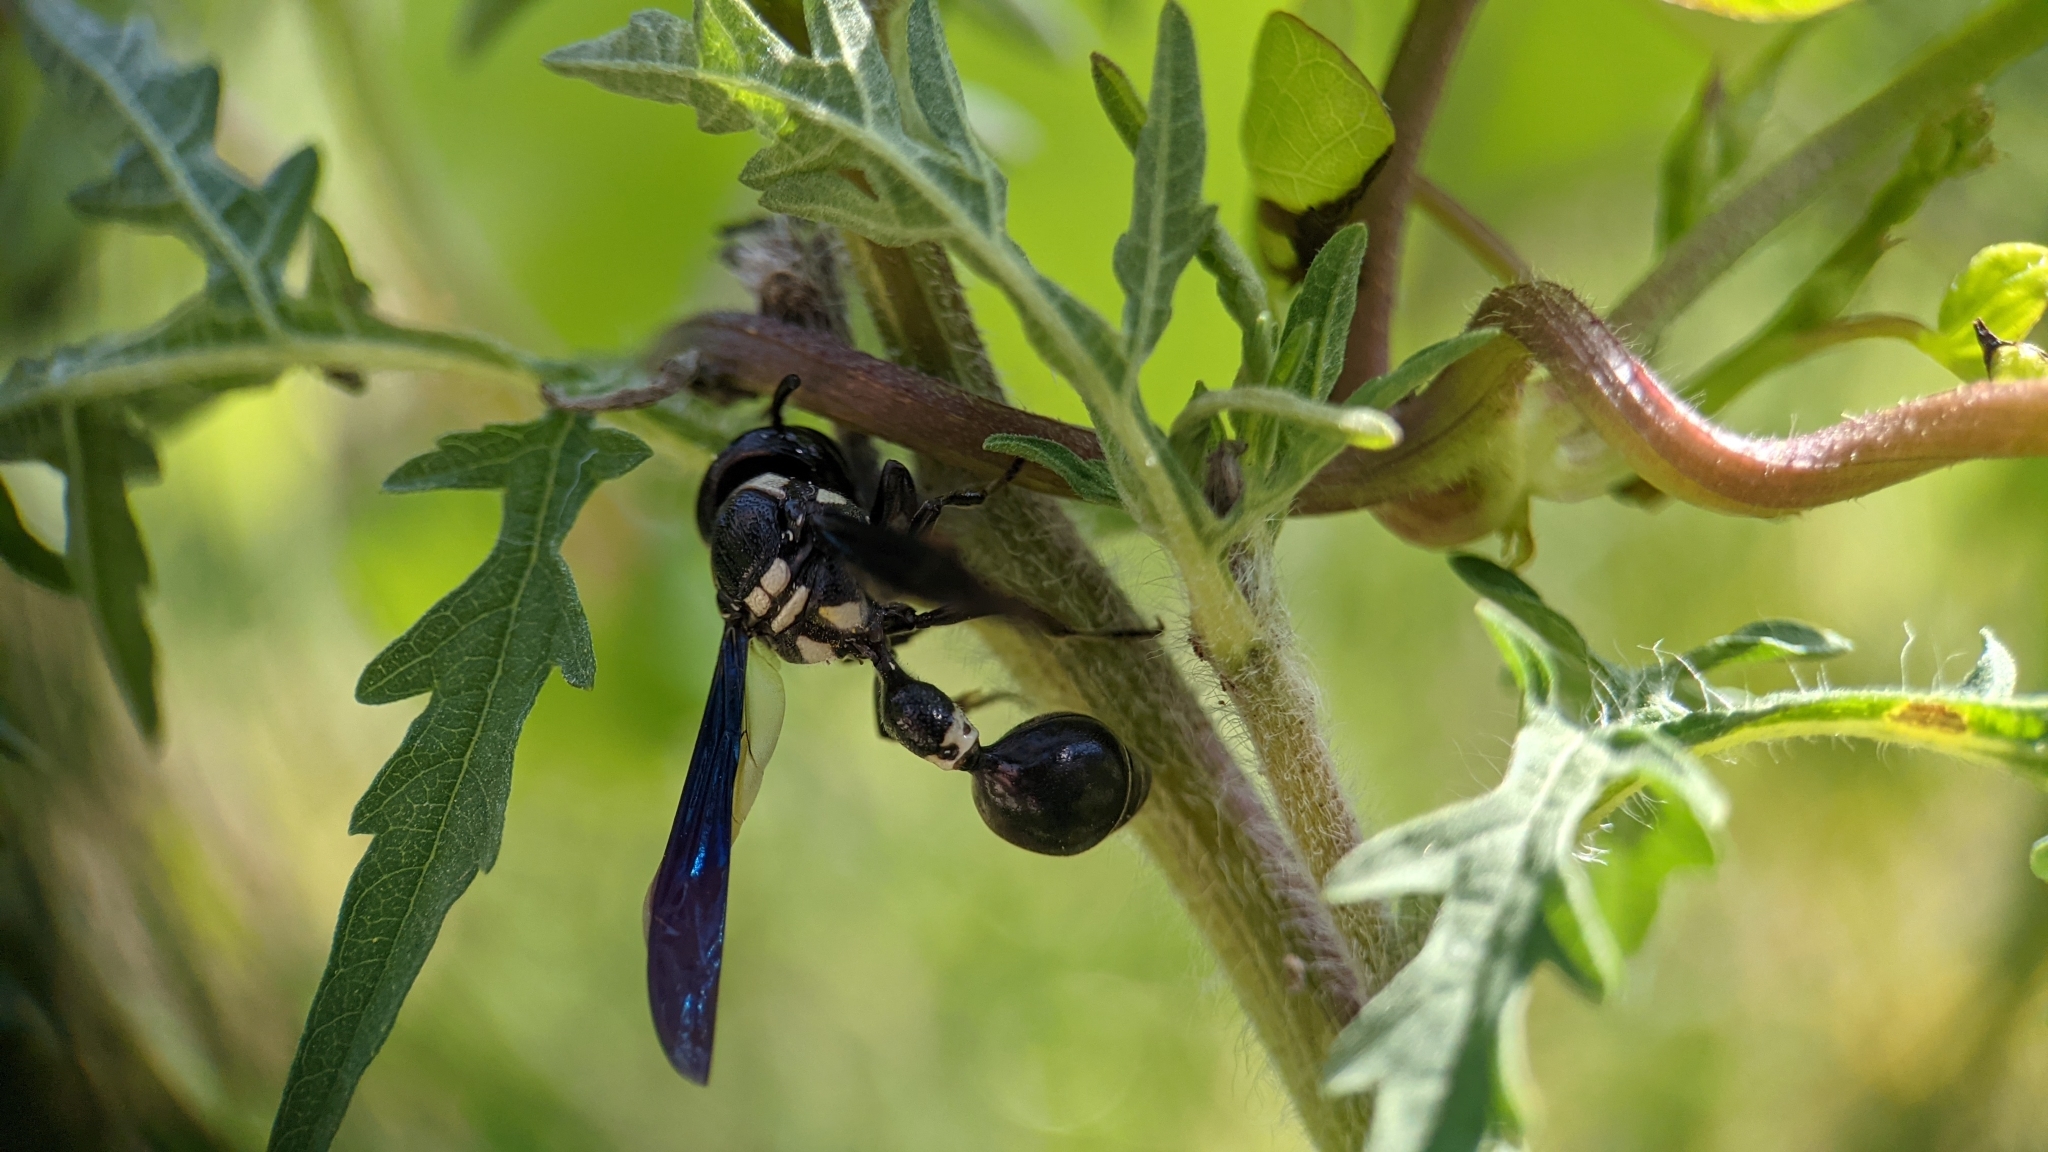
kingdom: Animalia
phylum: Arthropoda
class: Insecta
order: Hymenoptera
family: Eumenidae
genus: Zethus
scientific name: Zethus spinipes
